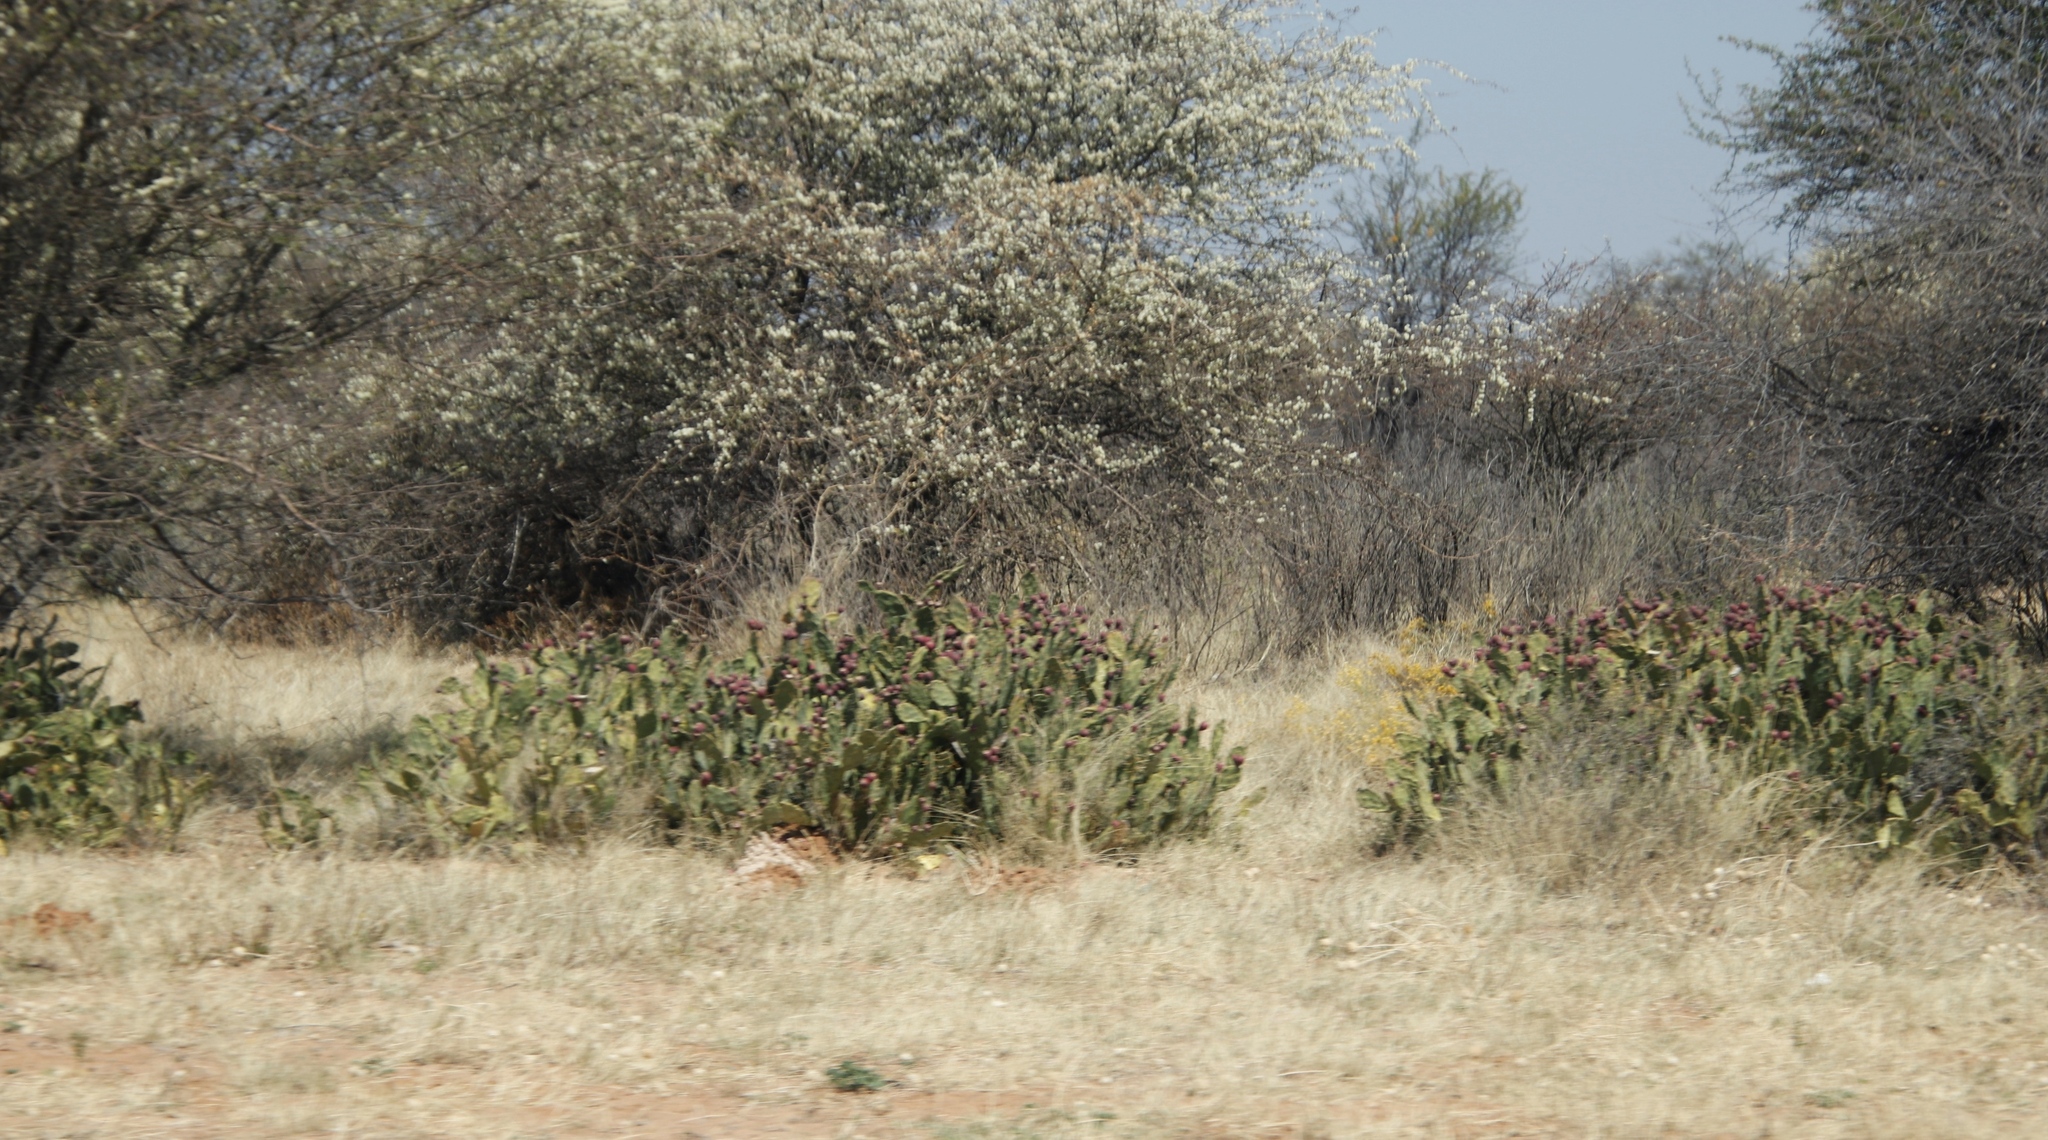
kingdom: Plantae
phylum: Tracheophyta
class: Magnoliopsida
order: Fabales
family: Fabaceae
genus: Senegalia
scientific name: Senegalia mellifera
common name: Hookthorn
